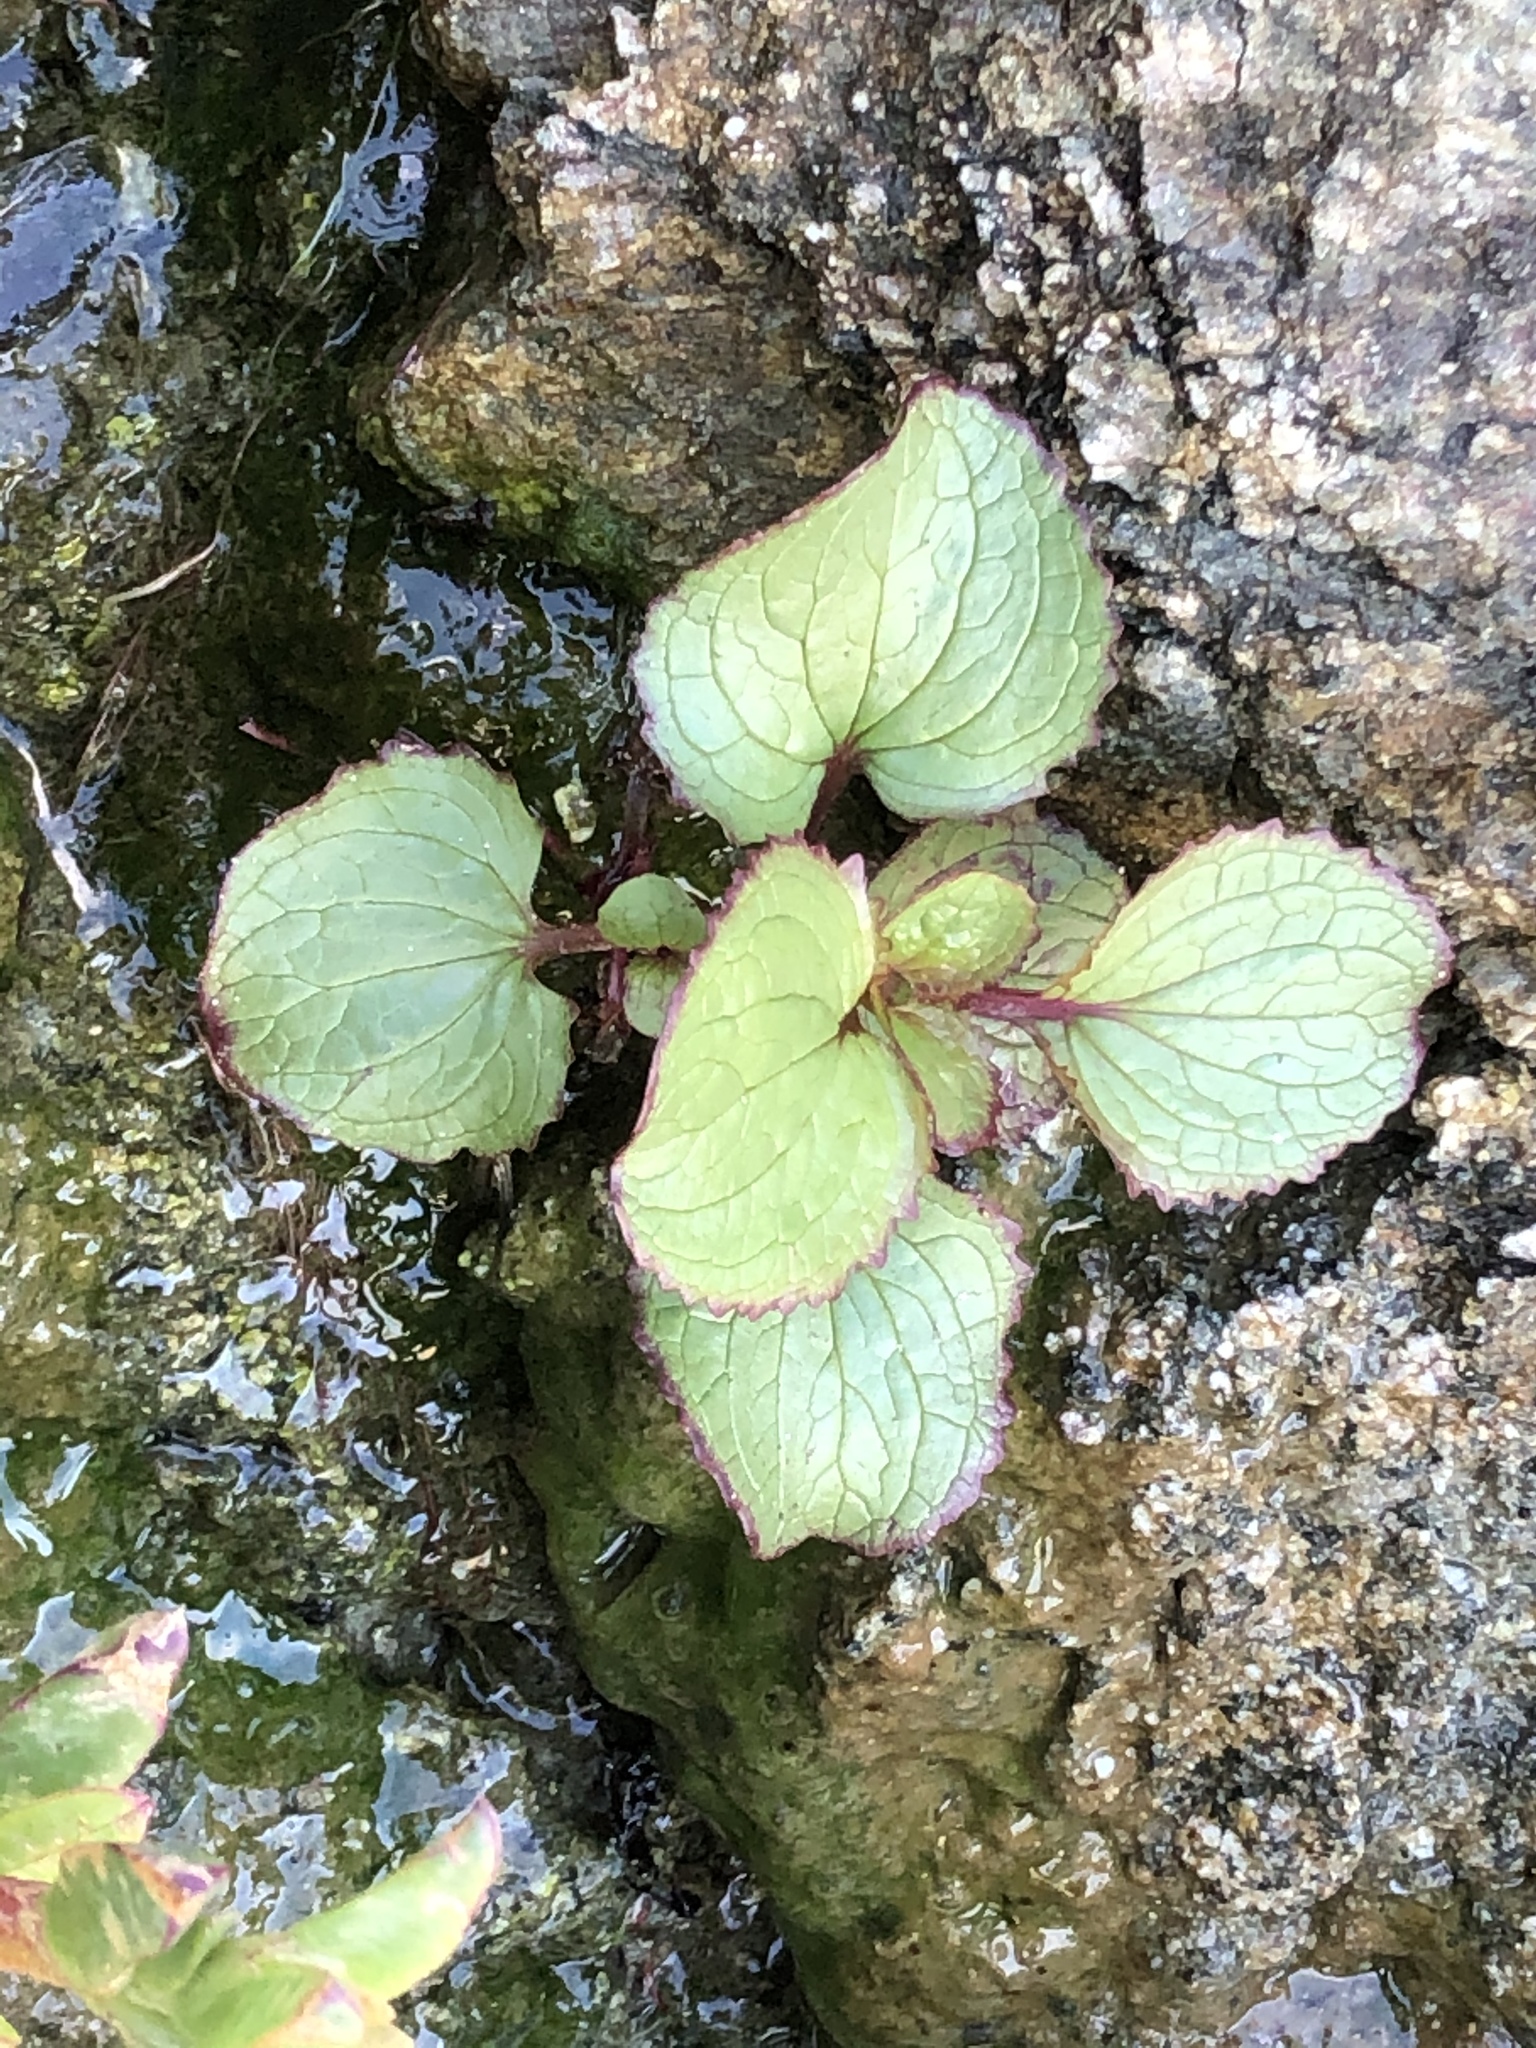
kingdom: Plantae
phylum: Tracheophyta
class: Magnoliopsida
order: Lamiales
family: Phrymaceae
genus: Erythranthe
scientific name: Erythranthe grandis
